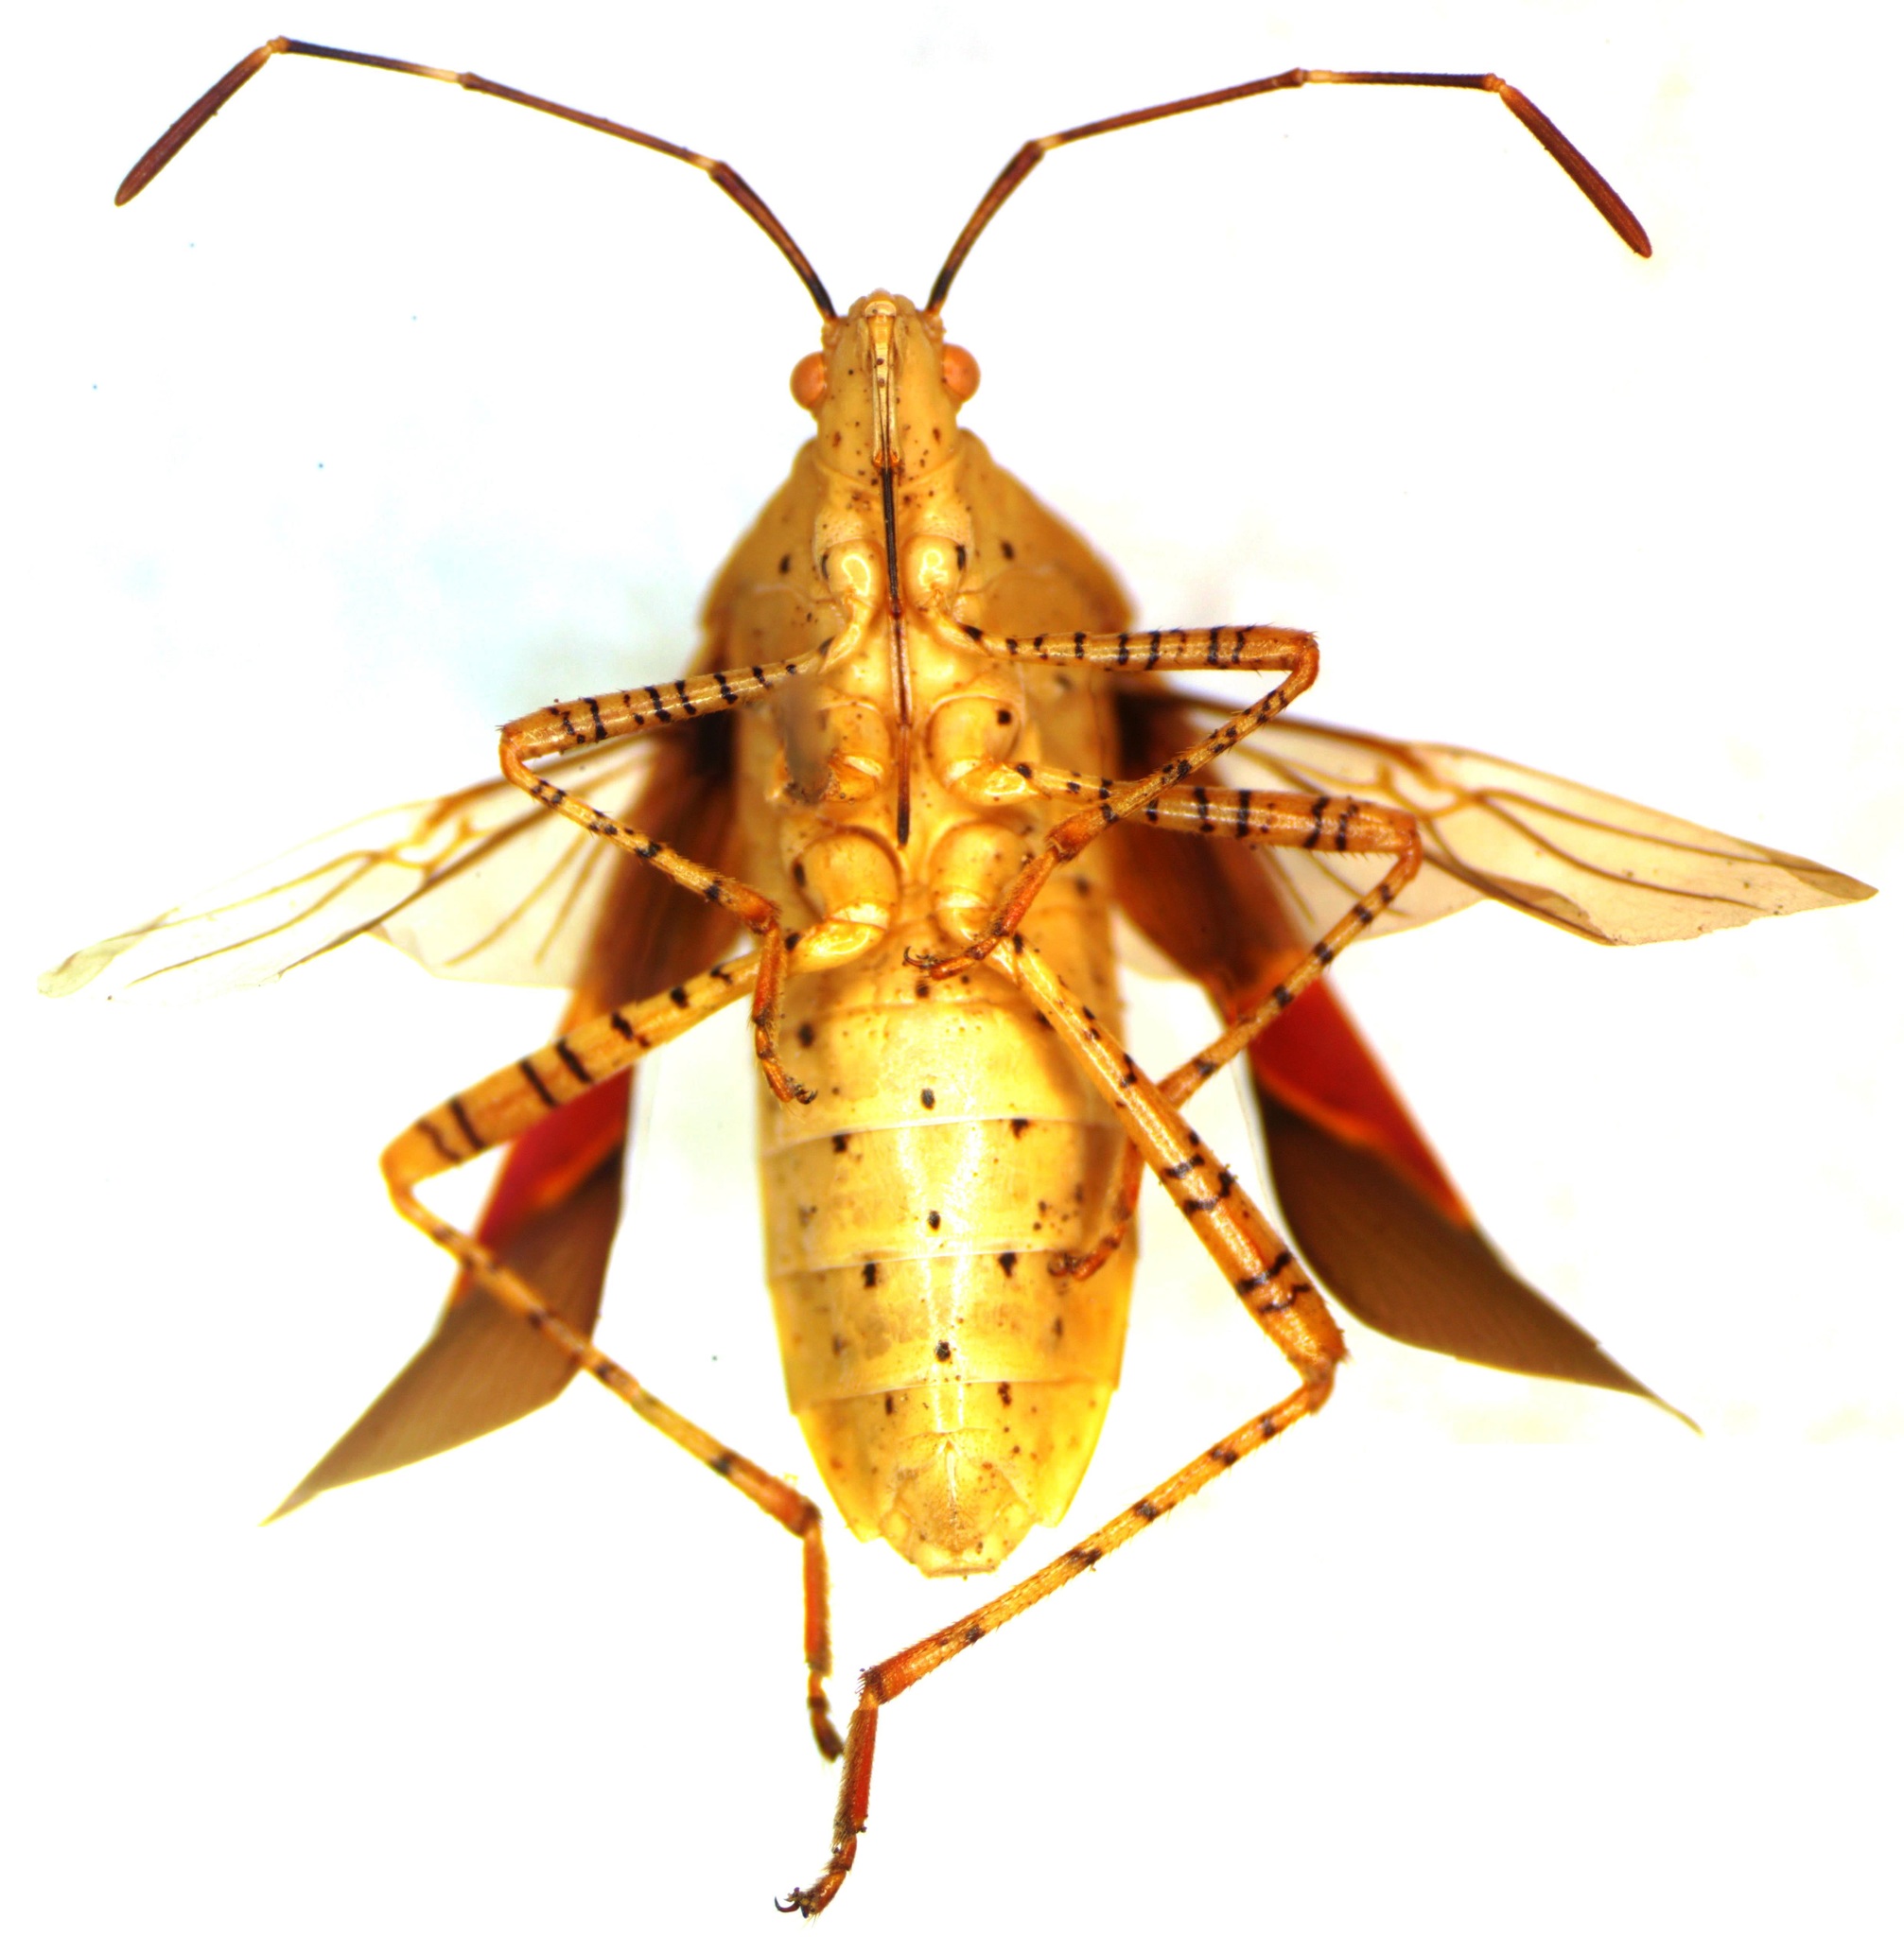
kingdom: Animalia
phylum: Arthropoda
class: Insecta
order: Hemiptera
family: Coreidae
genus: Hypselonotus
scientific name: Hypselonotus punctiventris
